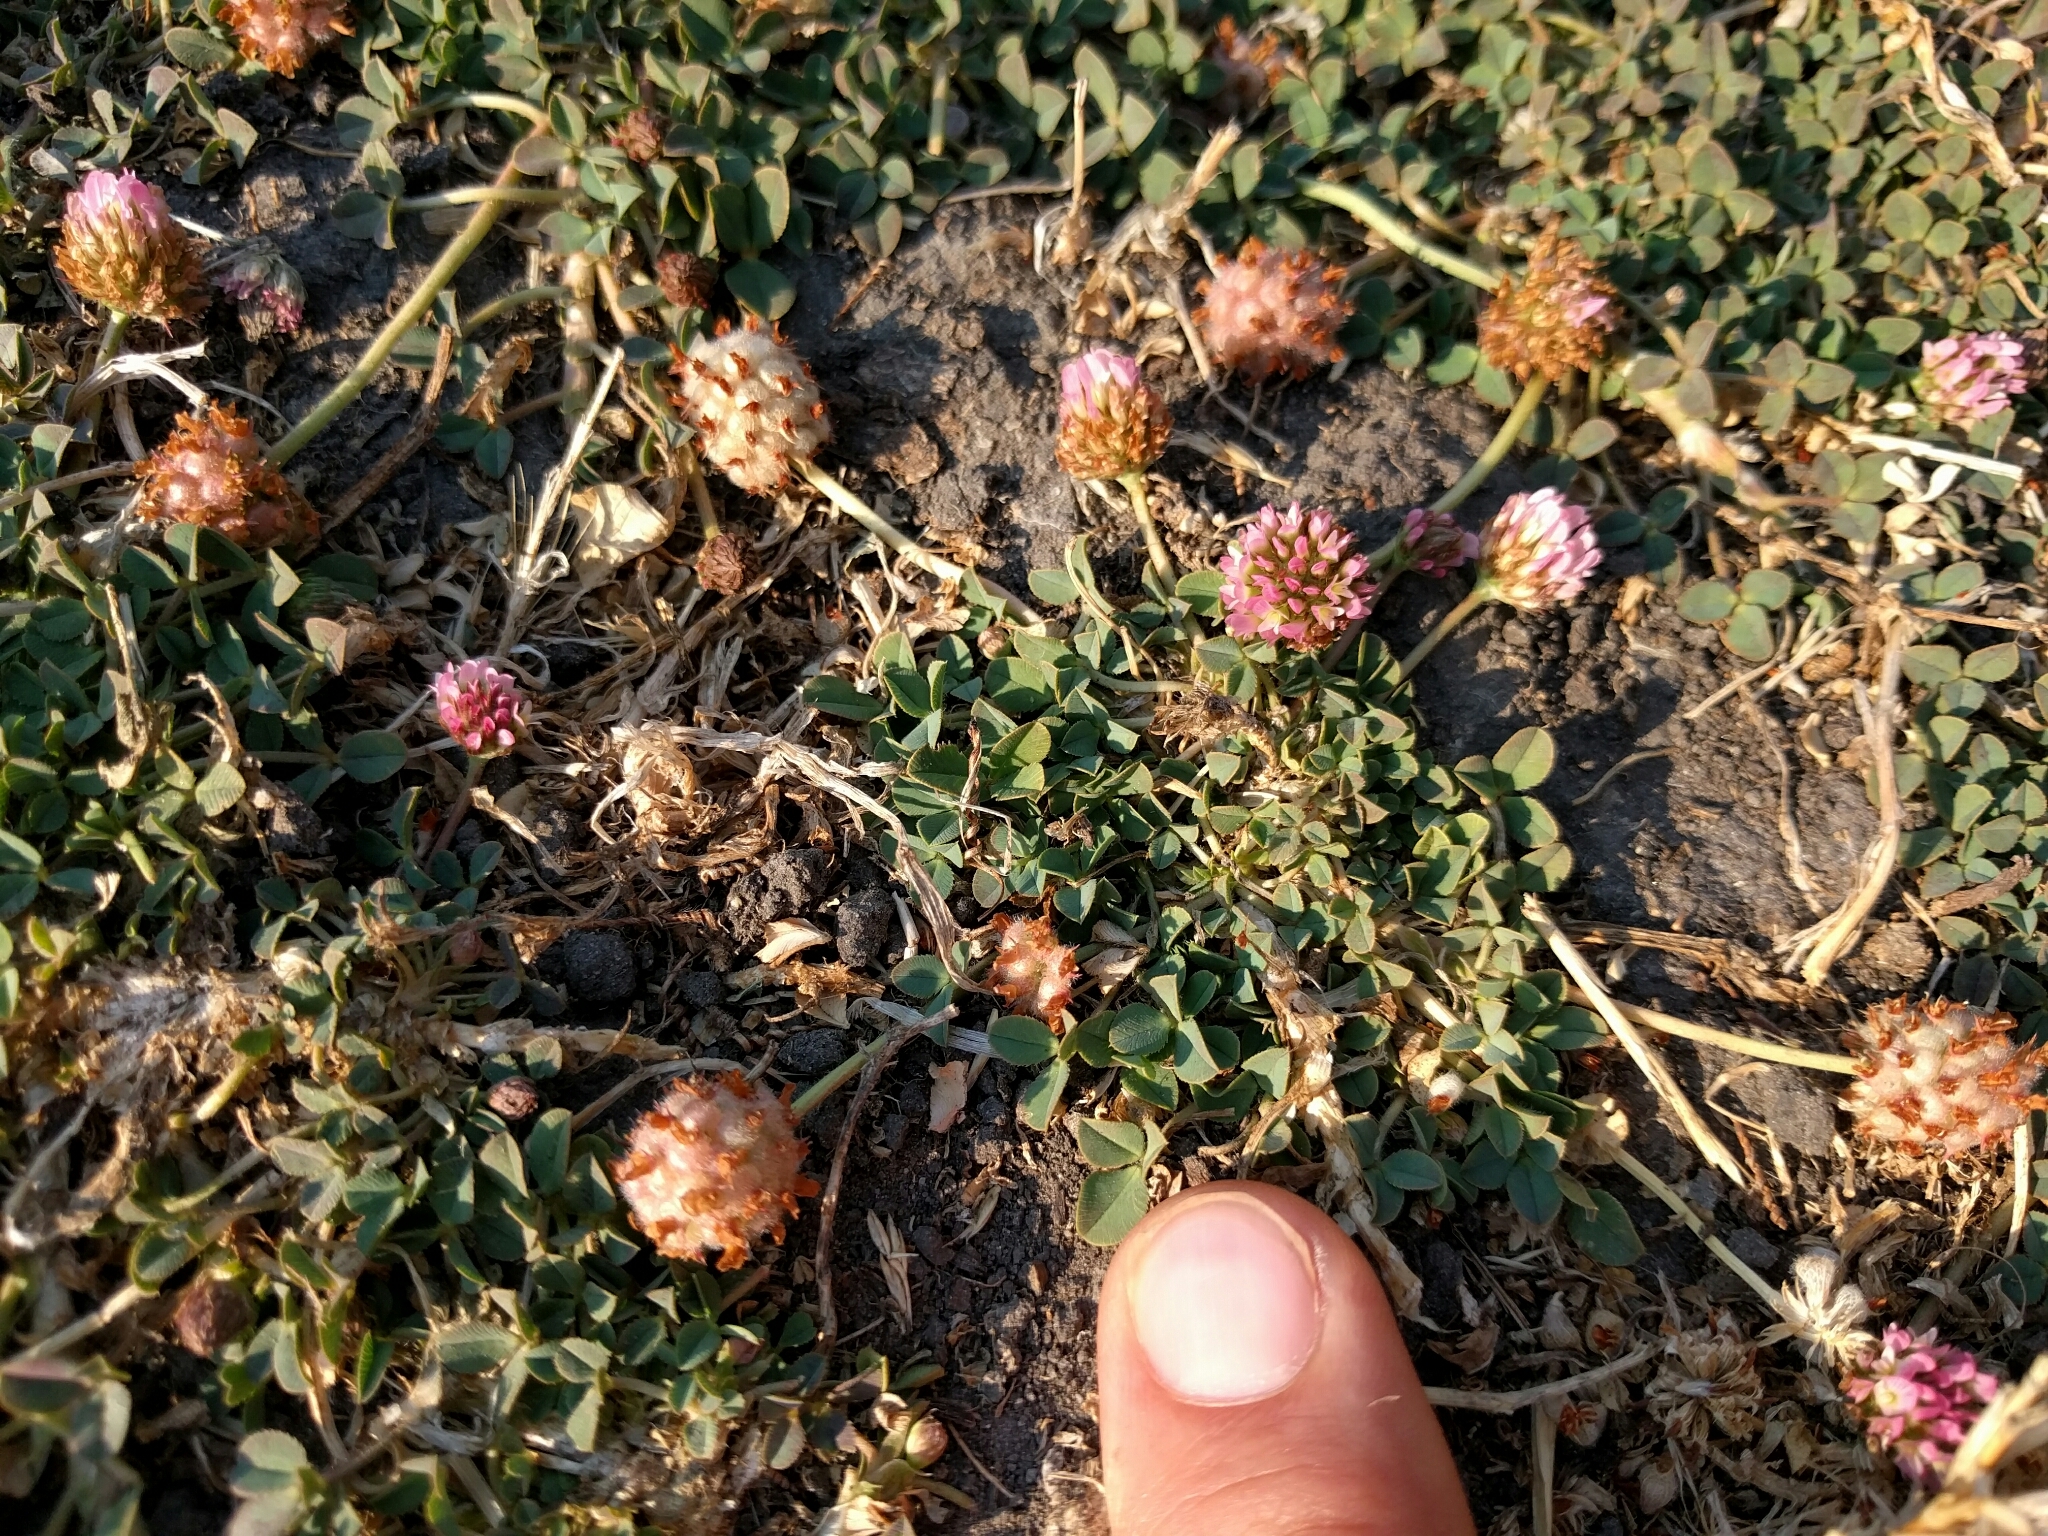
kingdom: Plantae
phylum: Tracheophyta
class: Magnoliopsida
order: Fabales
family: Fabaceae
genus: Trifolium
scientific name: Trifolium tomentosum
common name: Woolly clover
